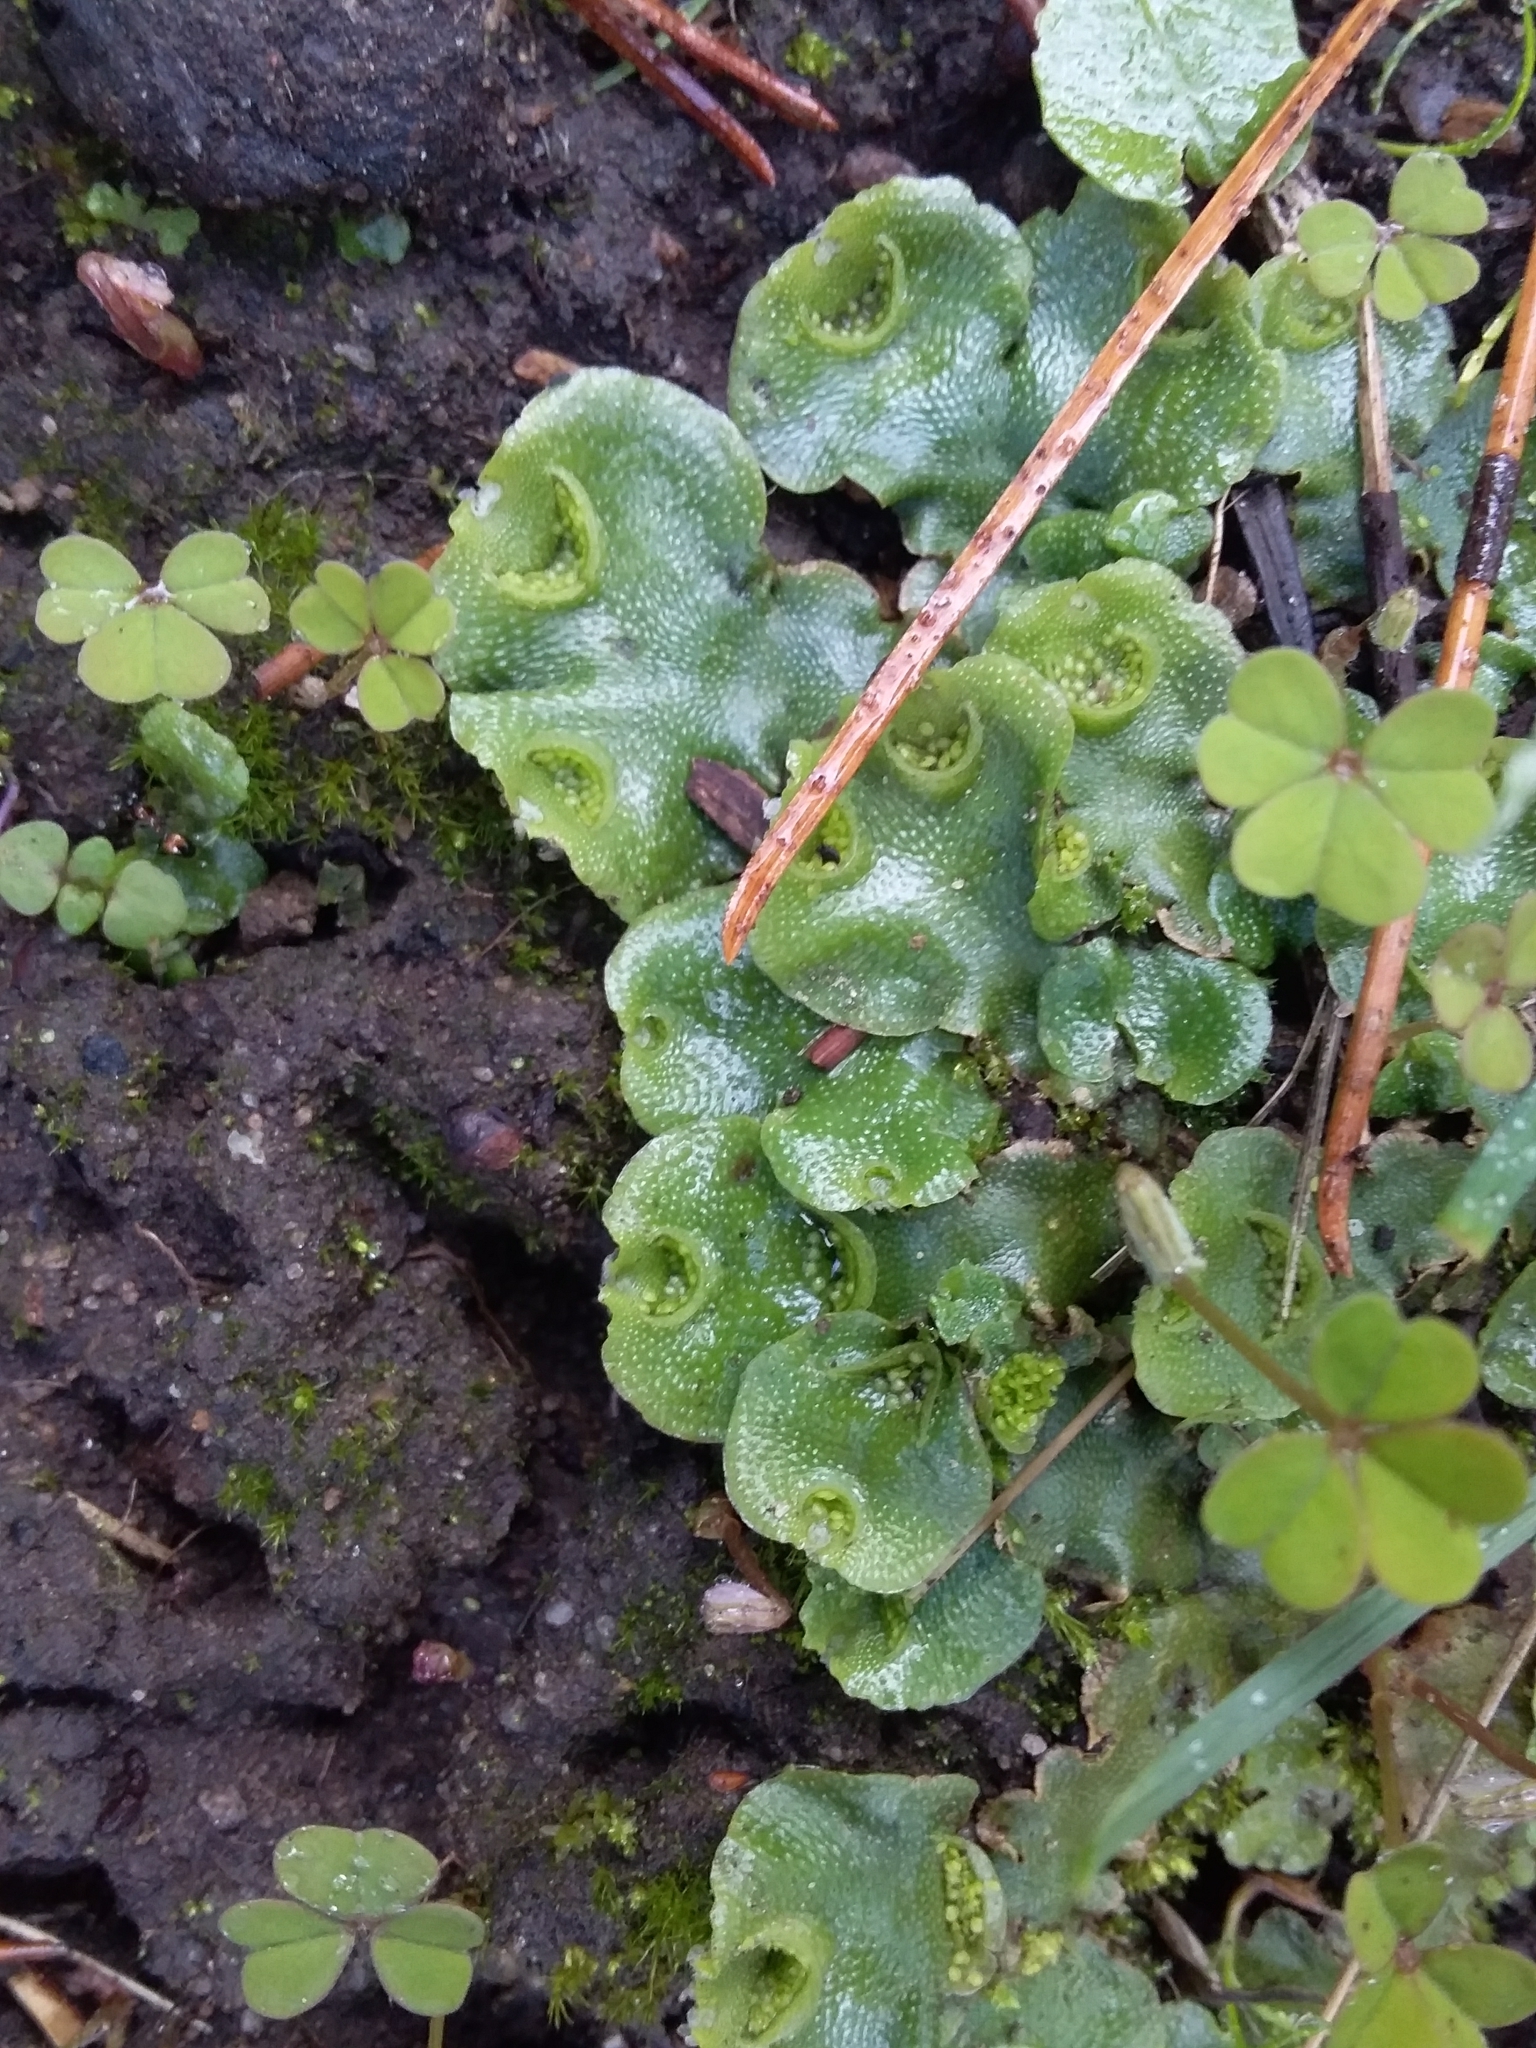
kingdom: Plantae
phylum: Marchantiophyta
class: Marchantiopsida
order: Lunulariales
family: Lunulariaceae
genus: Lunularia
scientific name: Lunularia cruciata
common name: Crescent-cup liverwort
